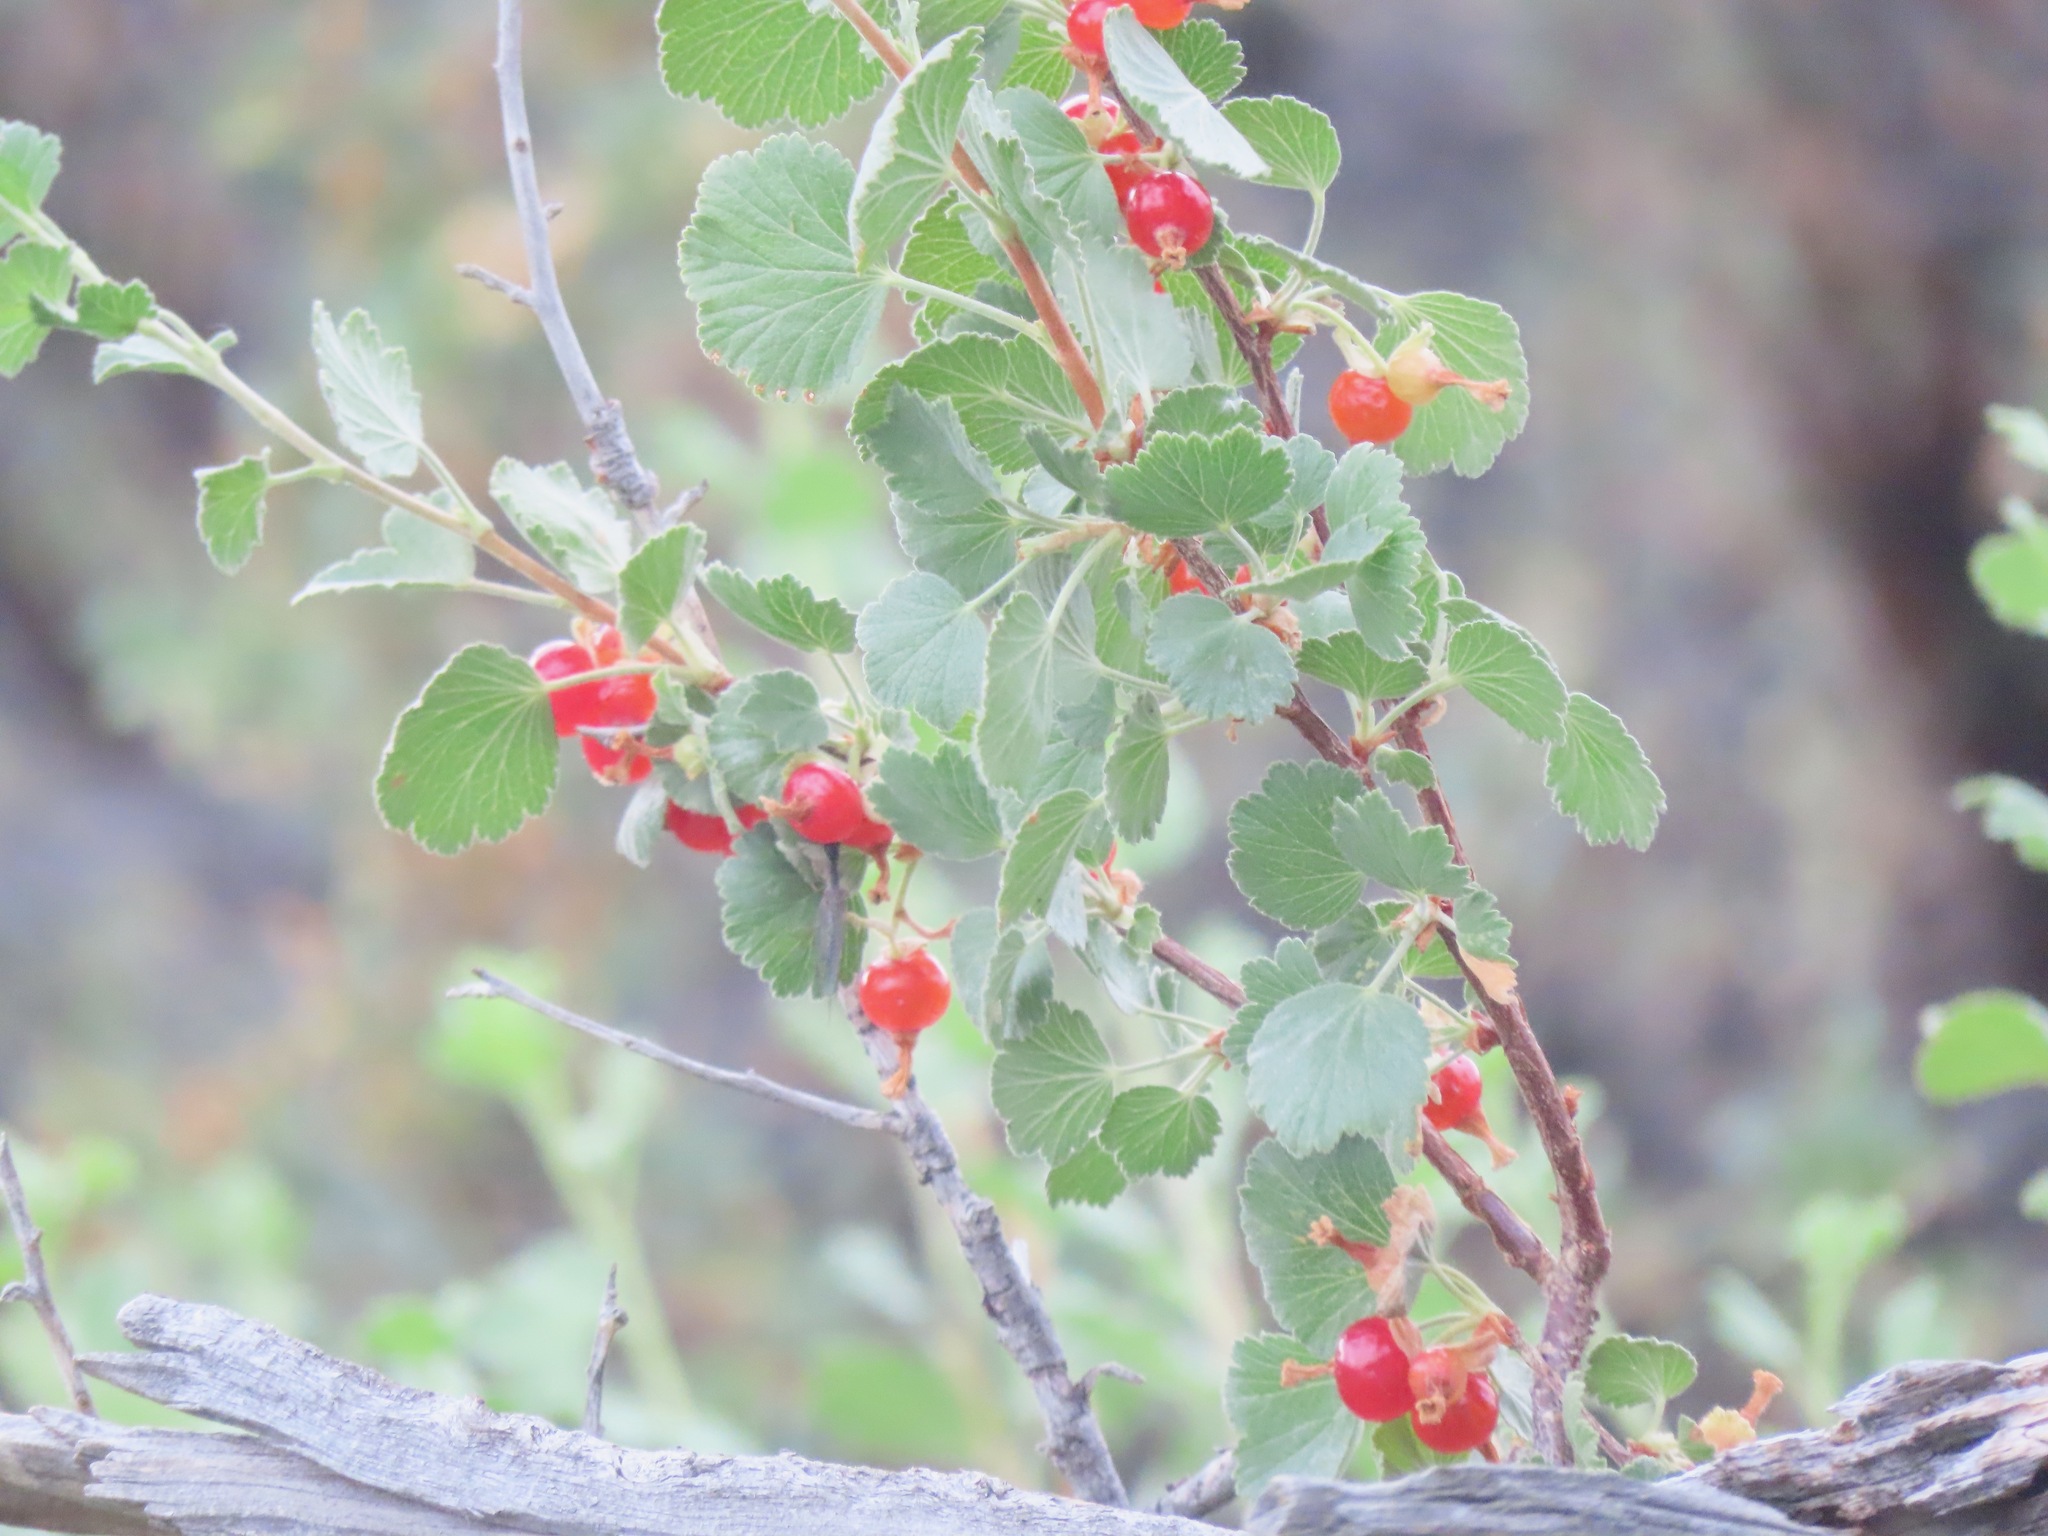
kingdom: Plantae
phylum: Tracheophyta
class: Magnoliopsida
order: Saxifragales
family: Grossulariaceae
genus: Ribes
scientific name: Ribes cereum
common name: Wax currant
